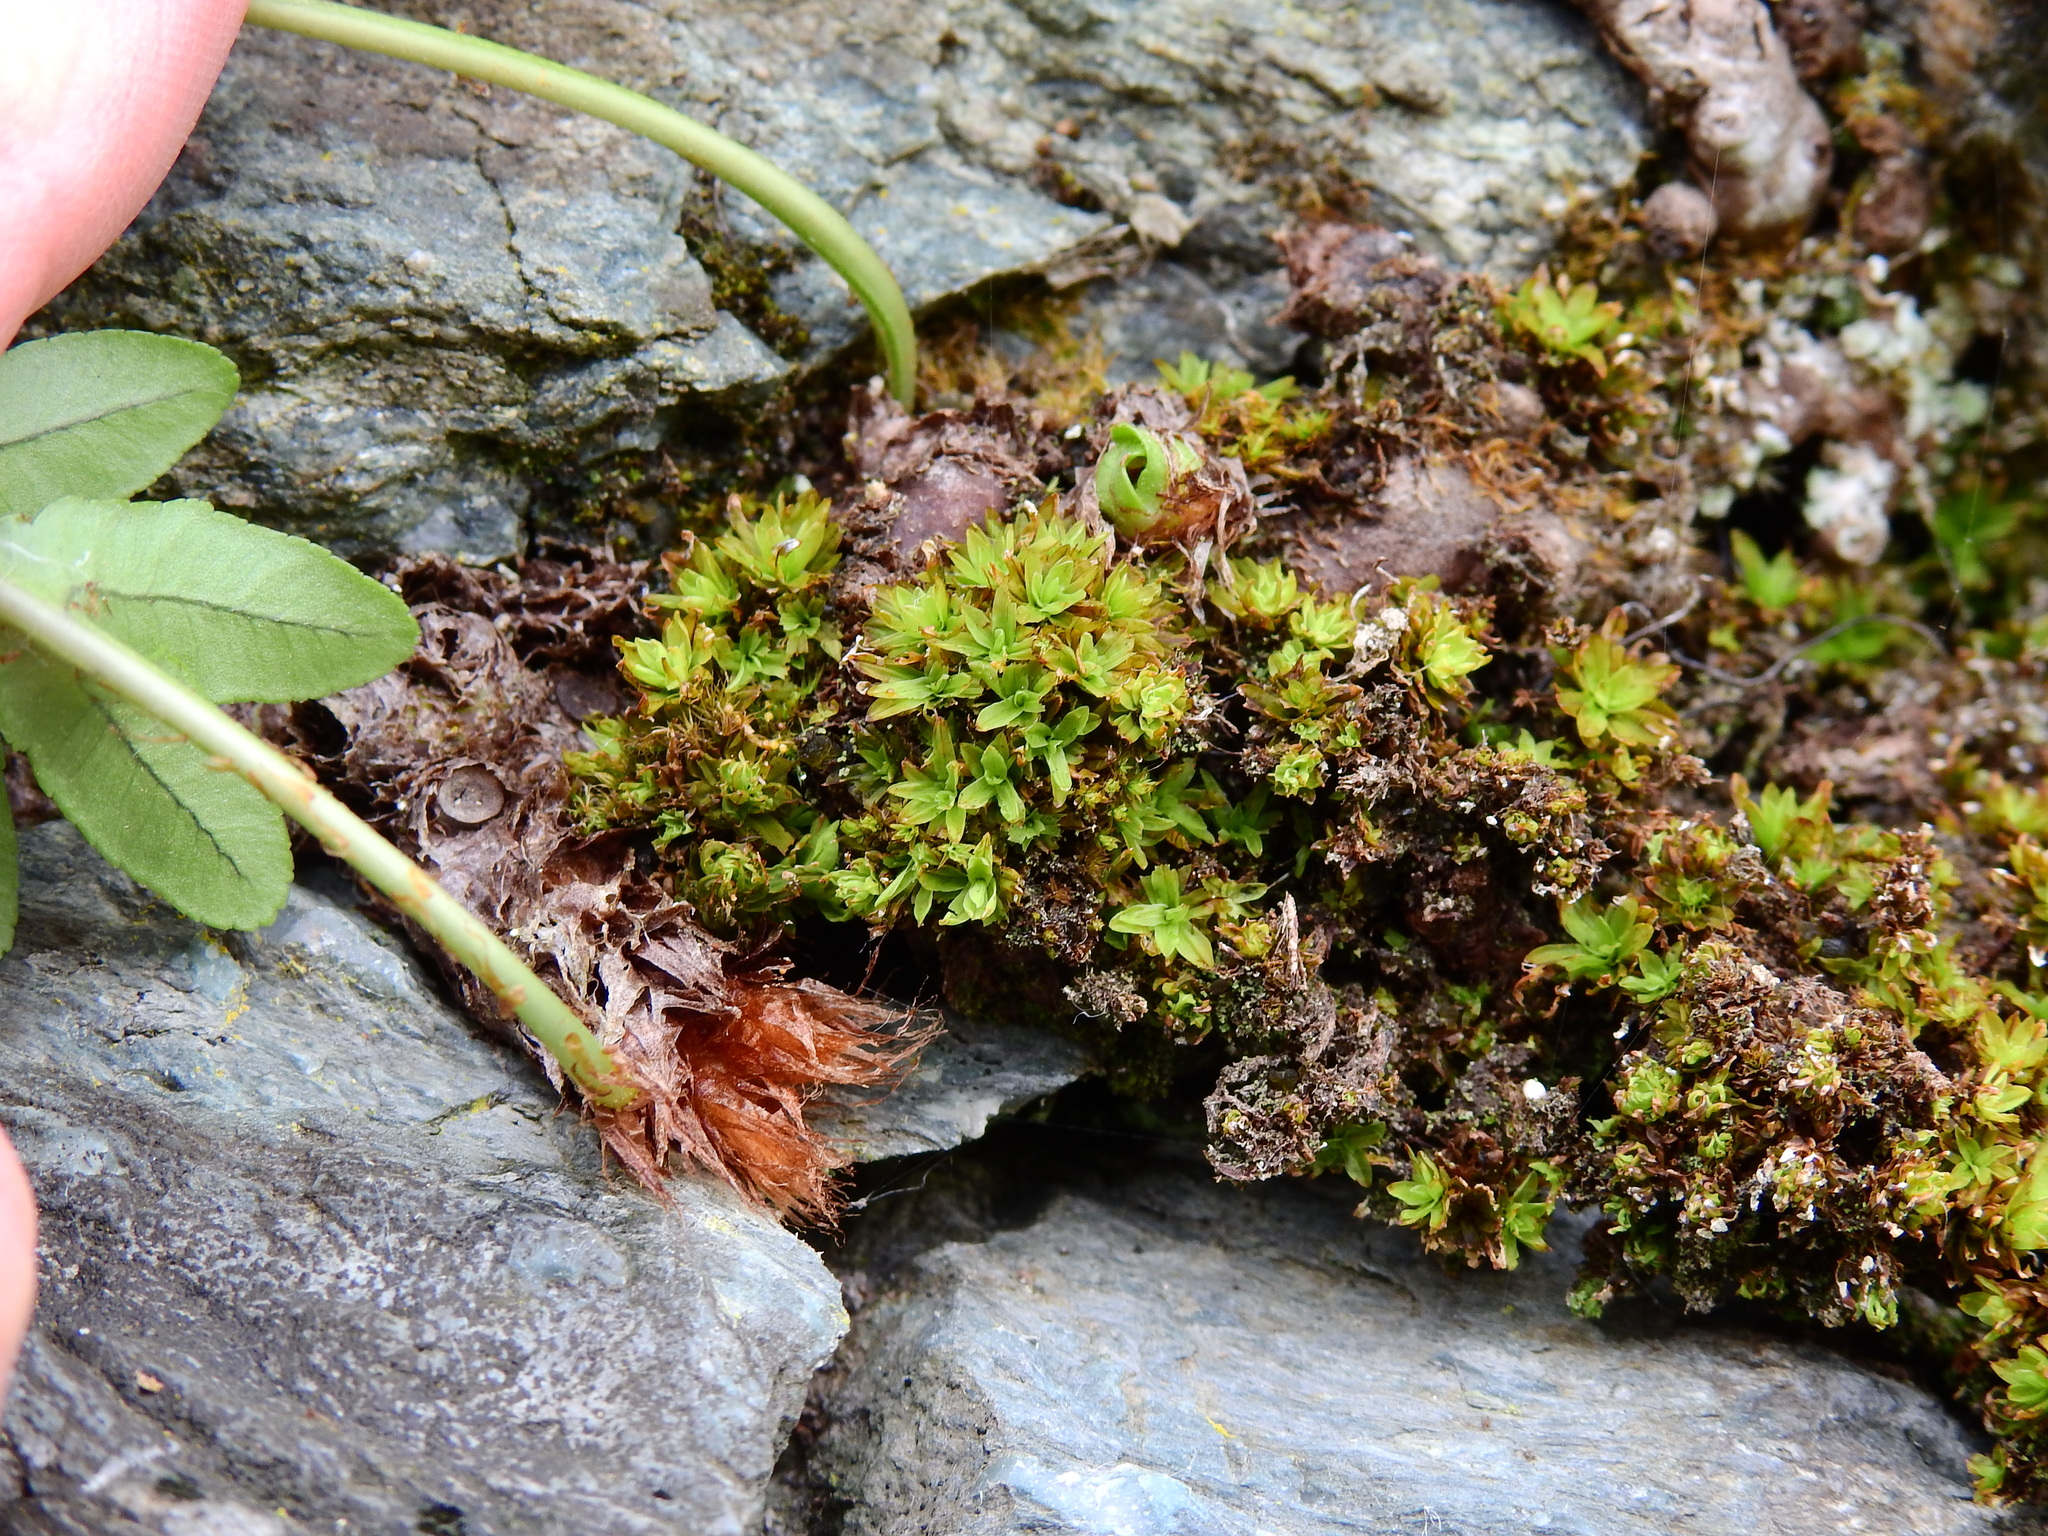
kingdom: Plantae
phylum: Bryophyta
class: Bryopsida
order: Encalyptales
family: Encalyptaceae
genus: Encalypta
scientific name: Encalypta streptocarpa
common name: Spiral extinguisher-moss
